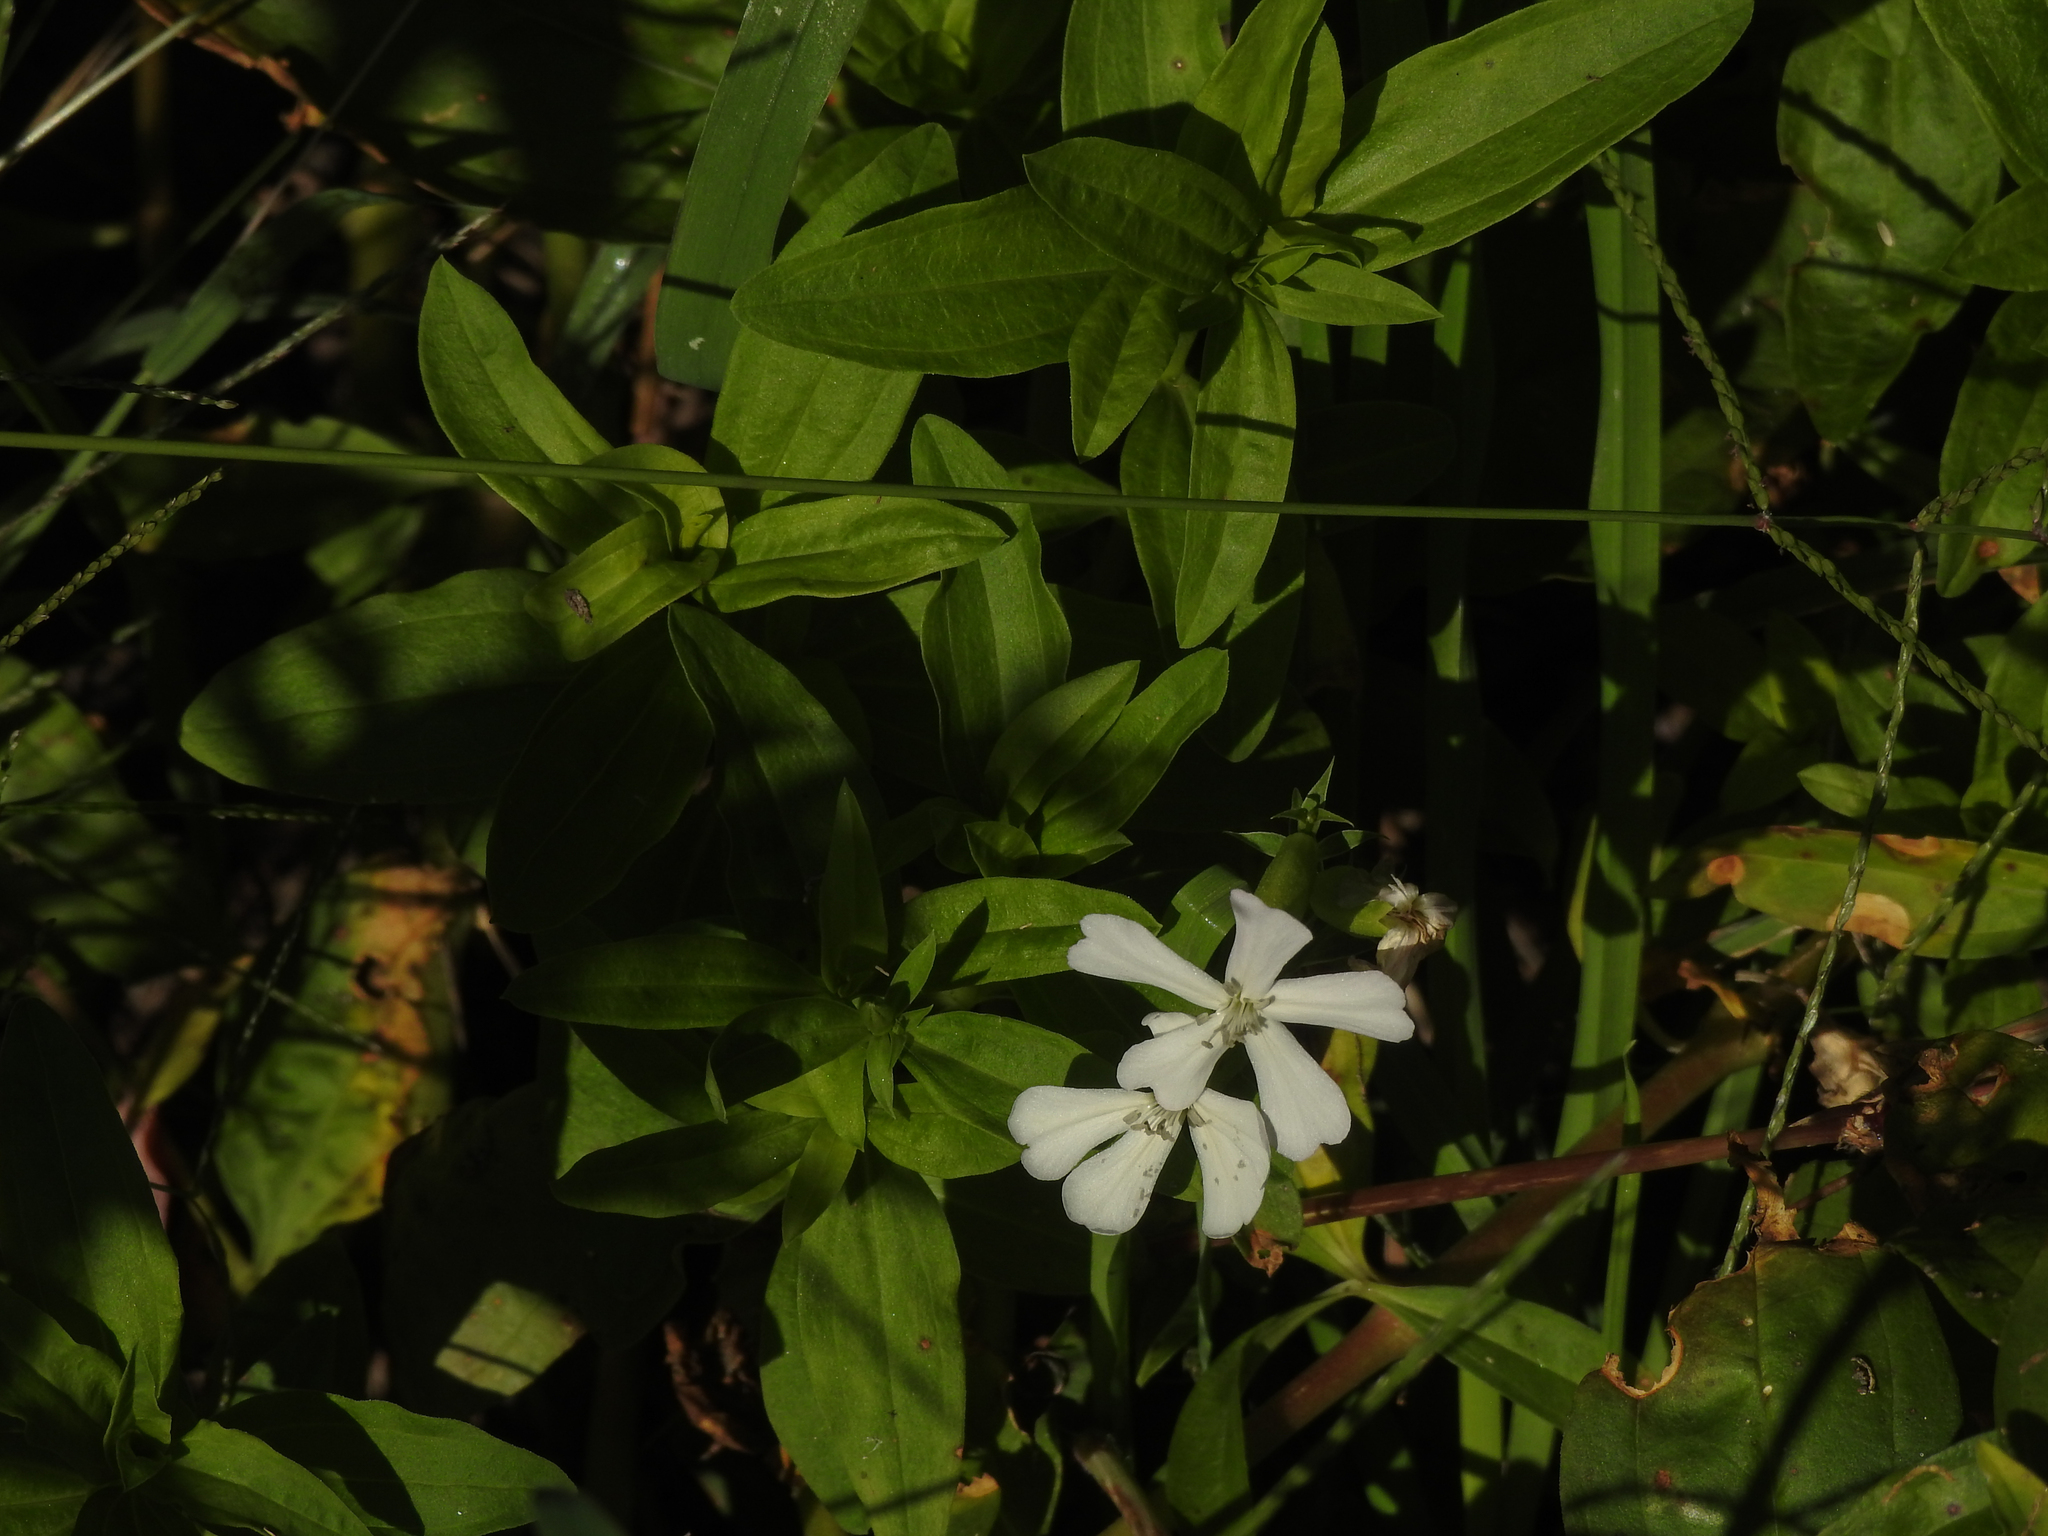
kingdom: Plantae
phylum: Tracheophyta
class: Magnoliopsida
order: Caryophyllales
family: Caryophyllaceae
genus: Silene
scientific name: Silene latifolia
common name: White campion
